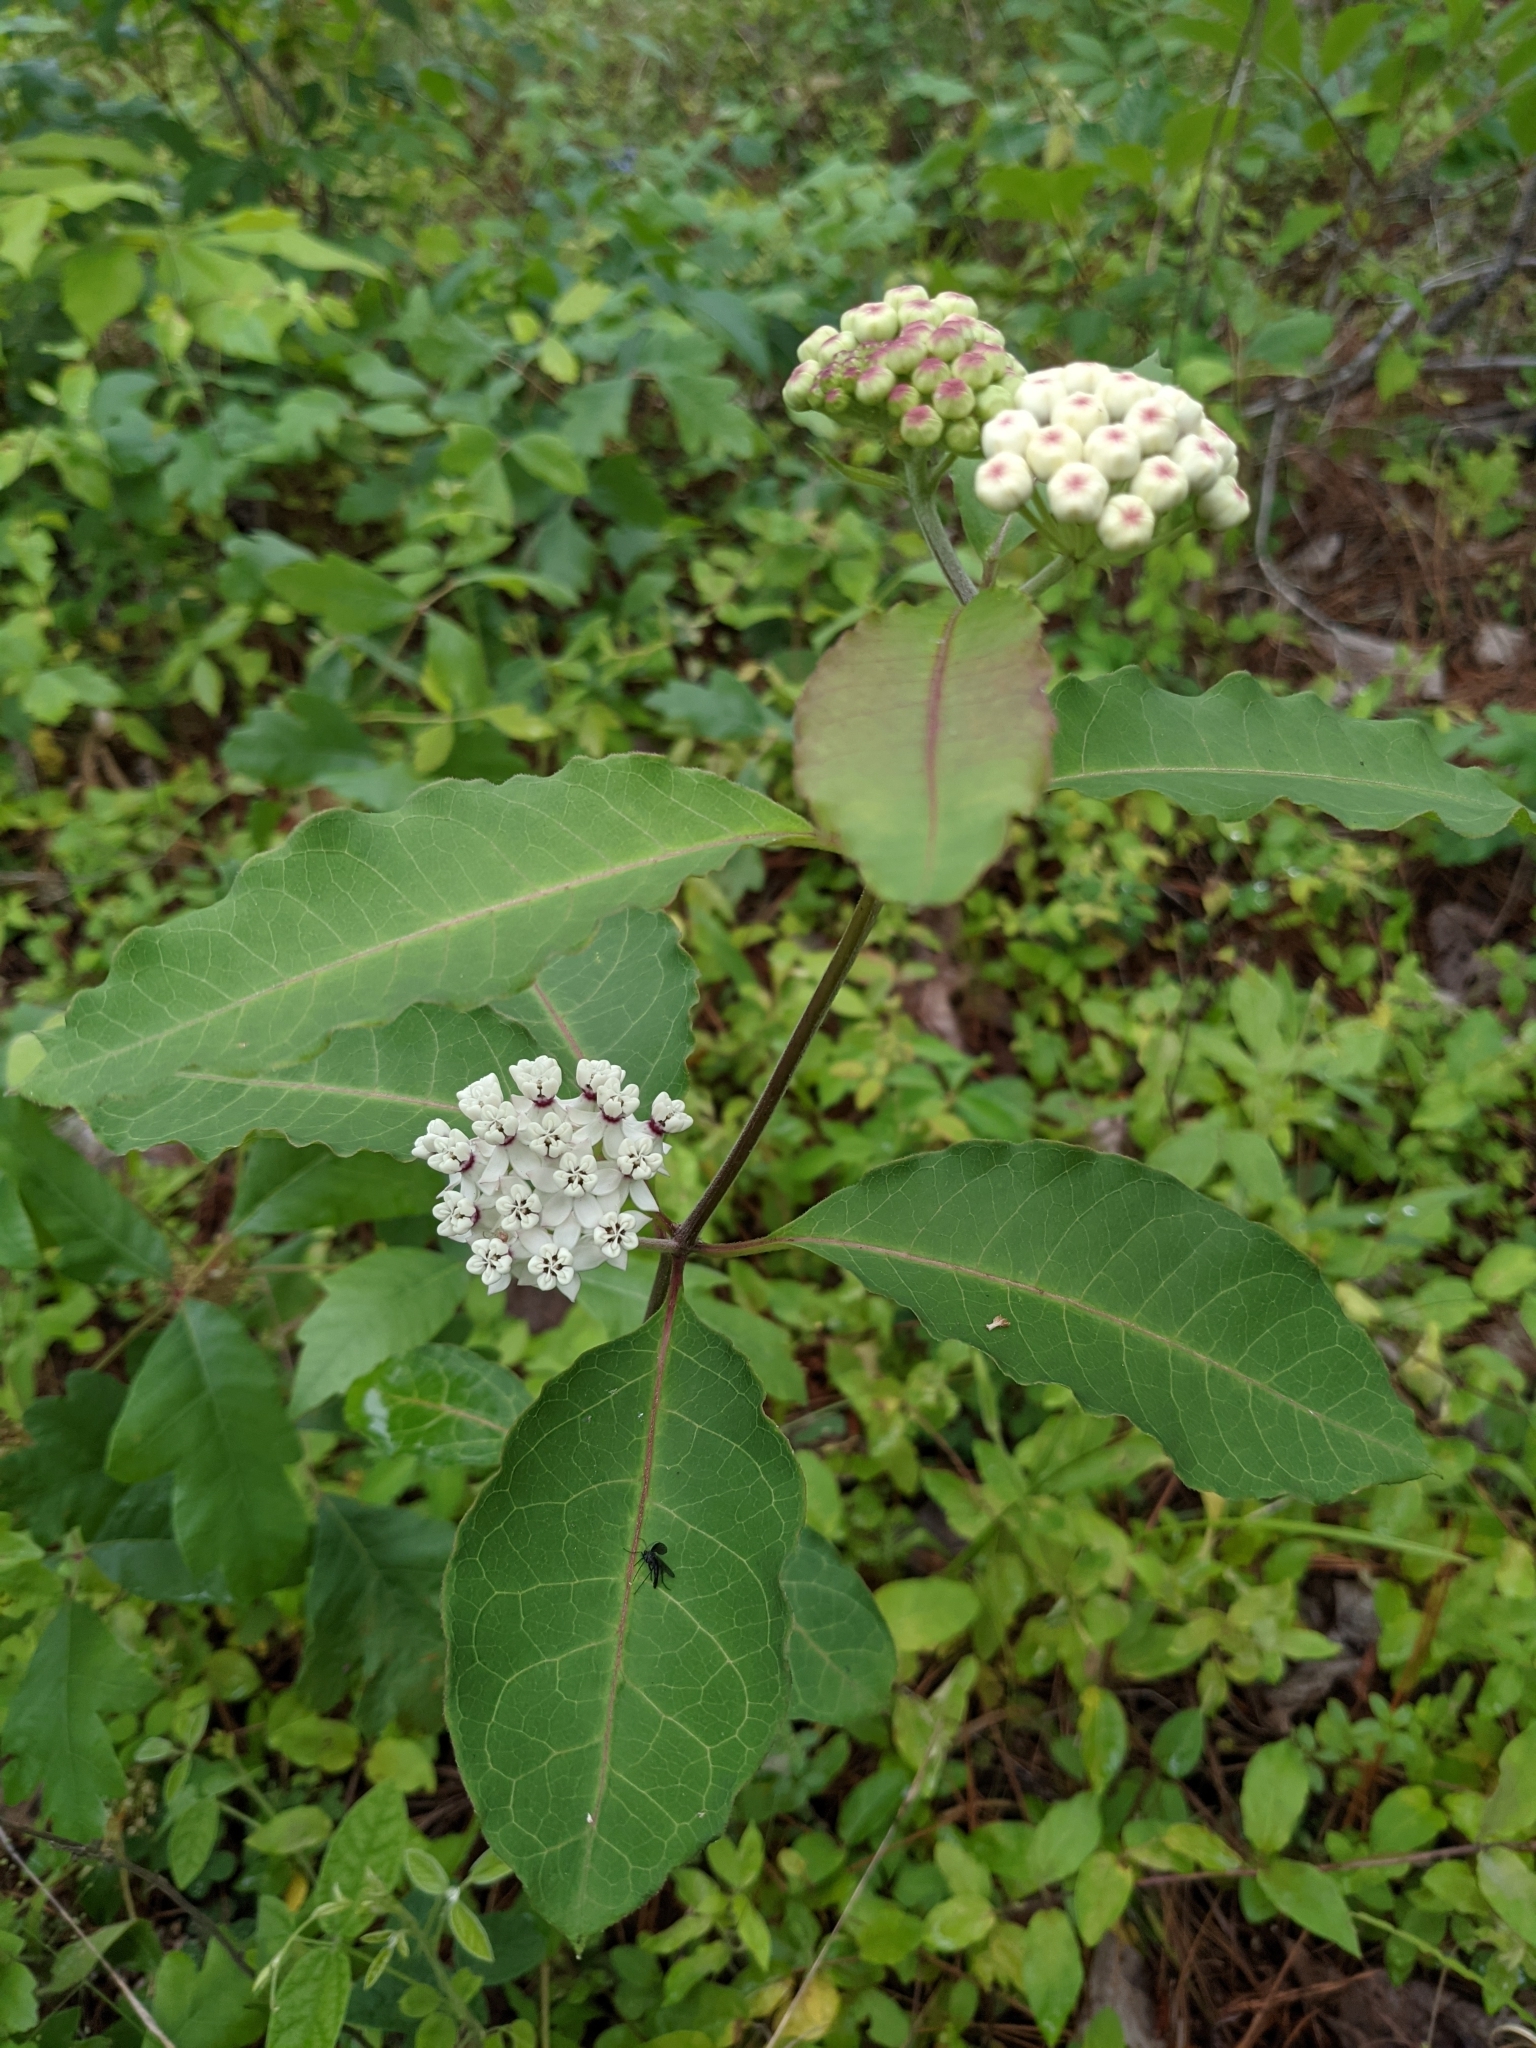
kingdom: Plantae
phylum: Tracheophyta
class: Magnoliopsida
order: Gentianales
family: Apocynaceae
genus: Asclepias
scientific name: Asclepias variegata
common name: Variegated milkweed
